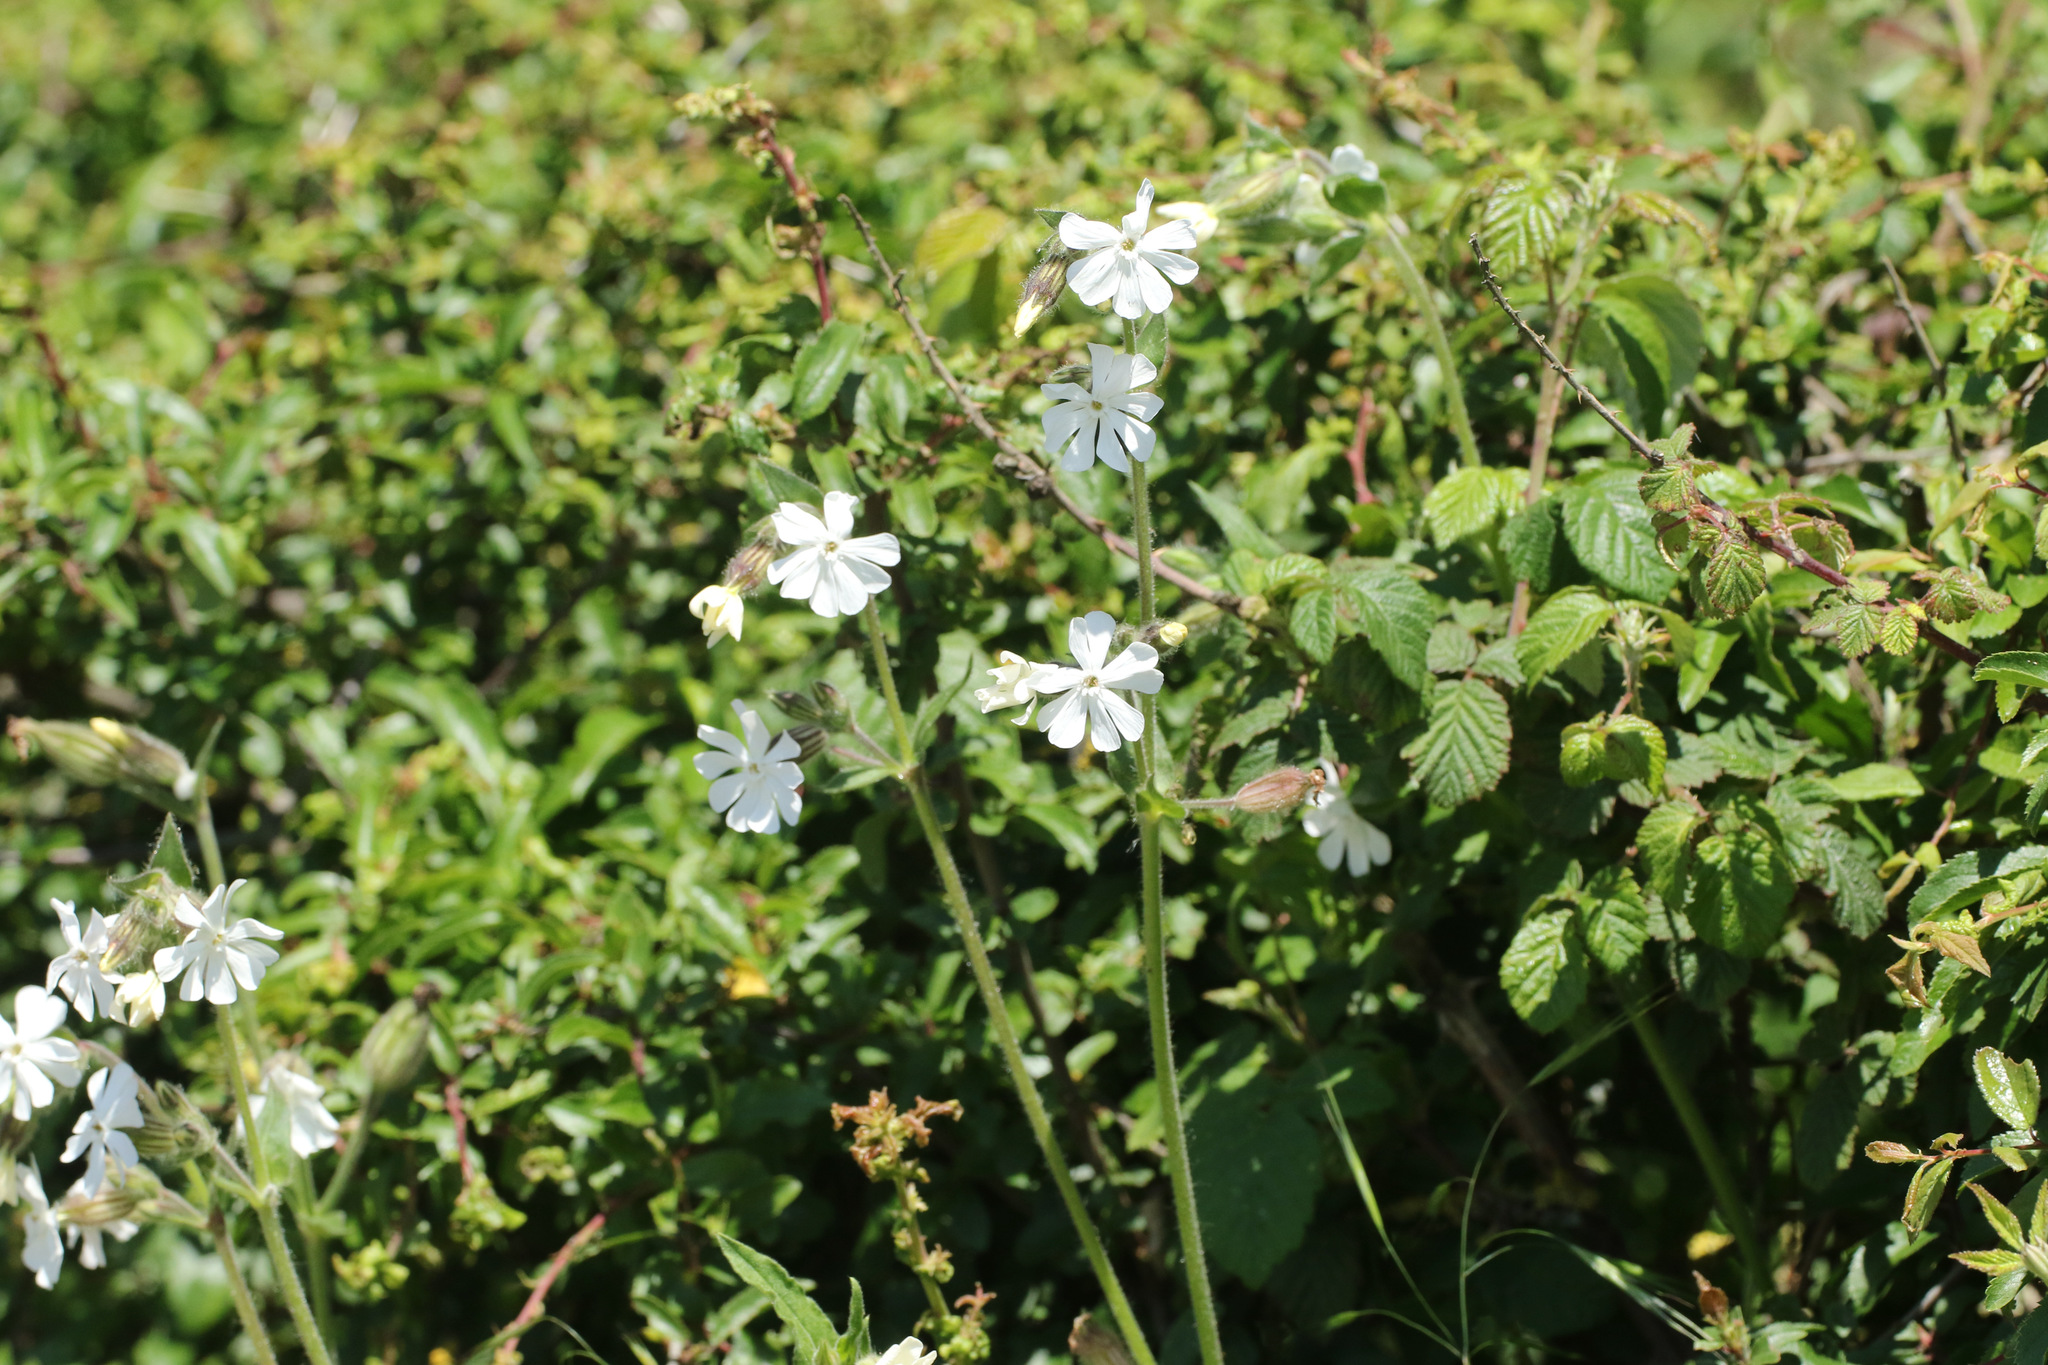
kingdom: Plantae
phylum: Tracheophyta
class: Magnoliopsida
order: Caryophyllales
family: Caryophyllaceae
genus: Silene
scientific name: Silene latifolia
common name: White campion
